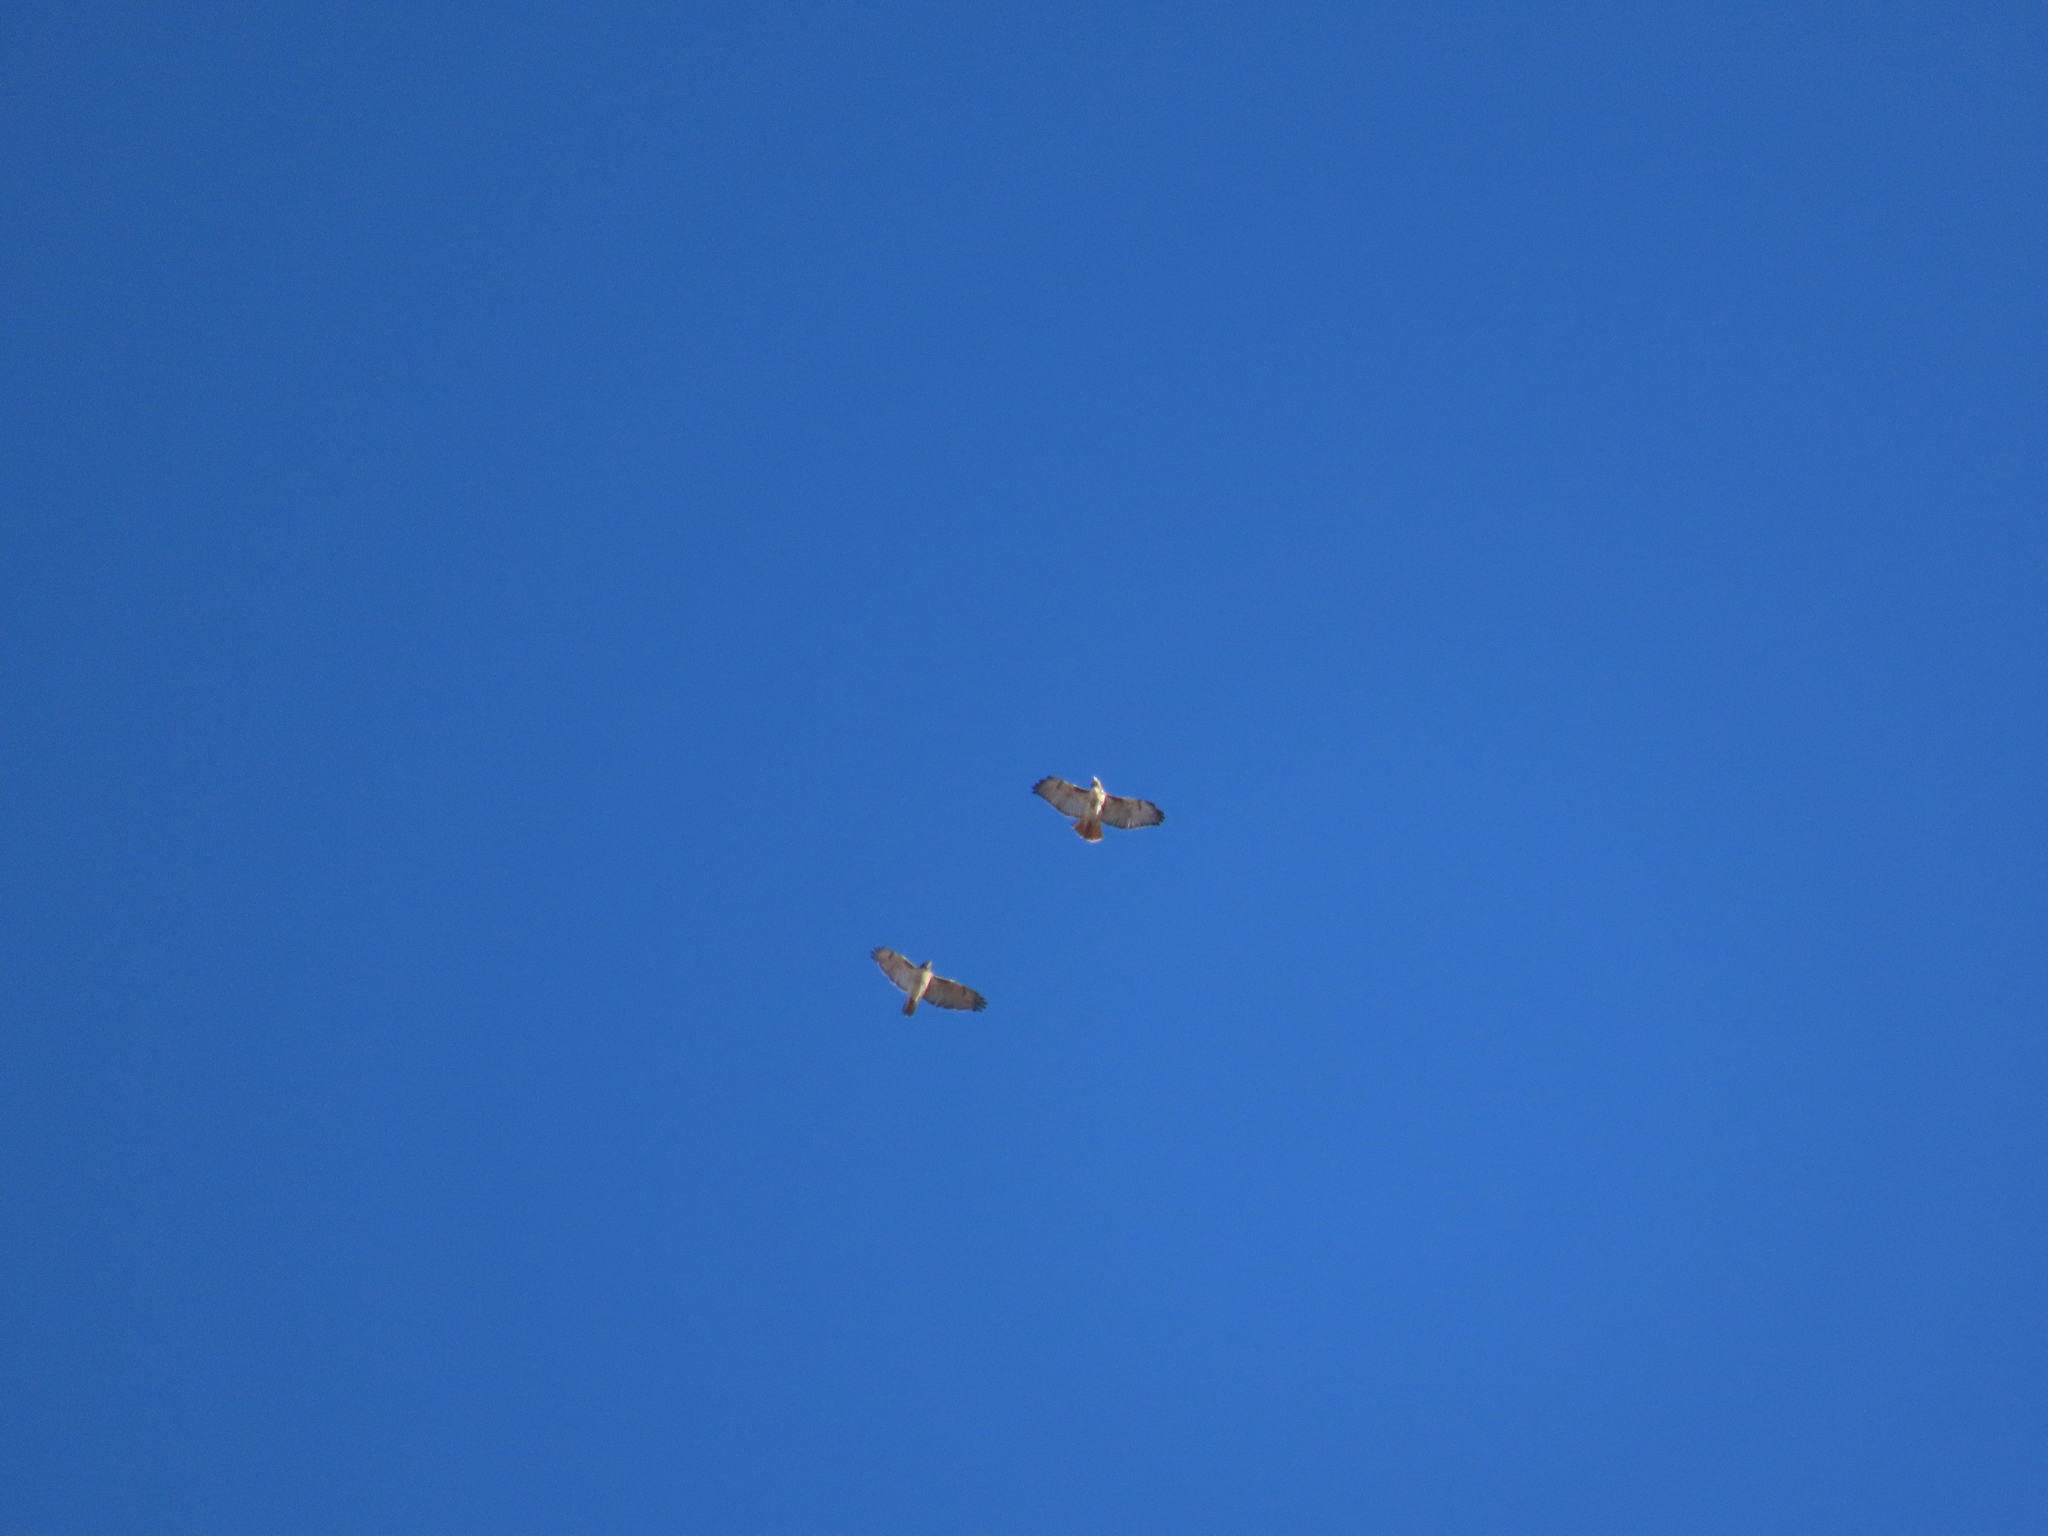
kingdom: Animalia
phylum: Chordata
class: Aves
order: Accipitriformes
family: Accipitridae
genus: Buteo
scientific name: Buteo jamaicensis
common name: Red-tailed hawk
